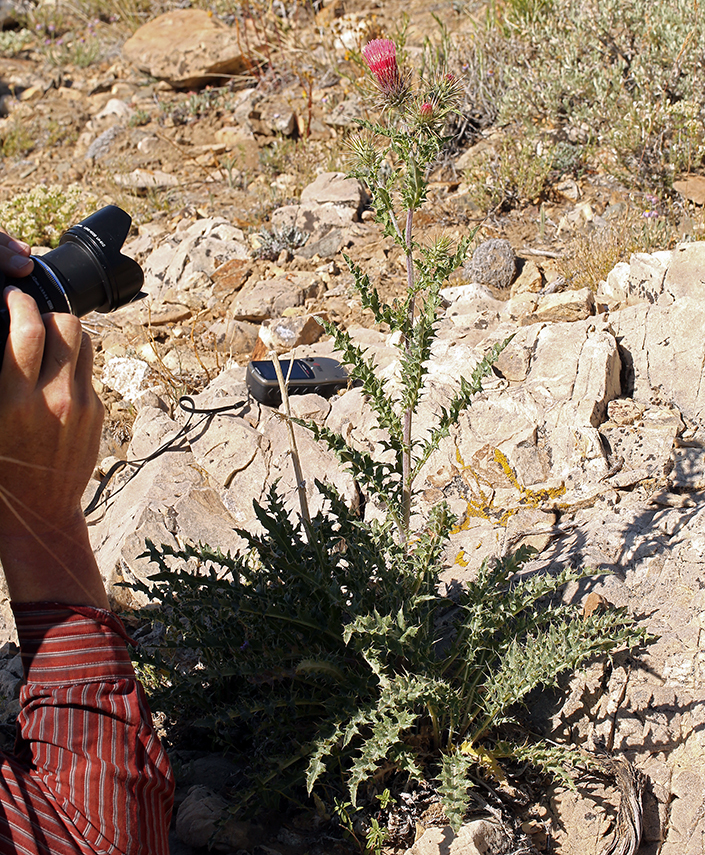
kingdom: Plantae
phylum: Tracheophyta
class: Magnoliopsida
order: Asterales
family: Asteraceae
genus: Cirsium
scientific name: Cirsium arizonicum
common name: Arizona thistle
